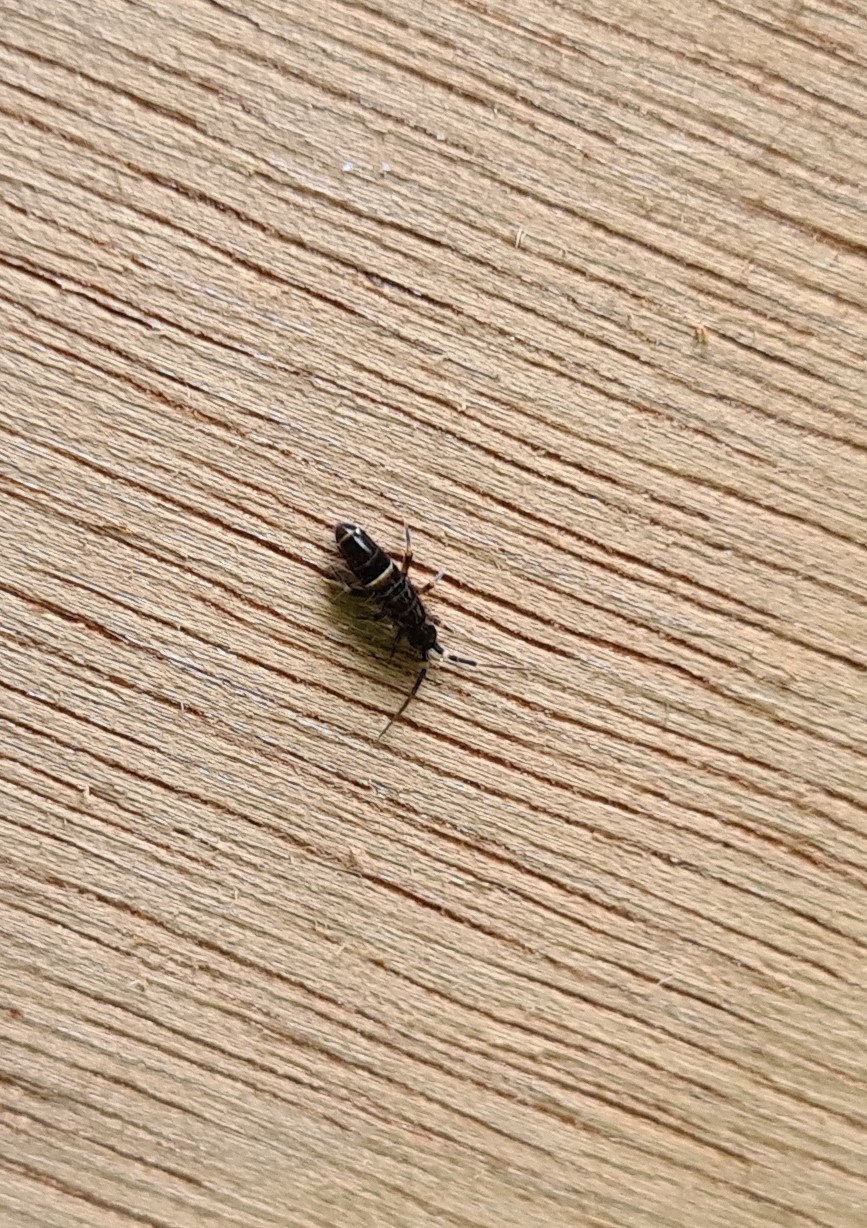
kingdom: Animalia
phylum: Arthropoda
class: Collembola
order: Entomobryomorpha
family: Orchesellidae
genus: Orchesella
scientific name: Orchesella cincta
